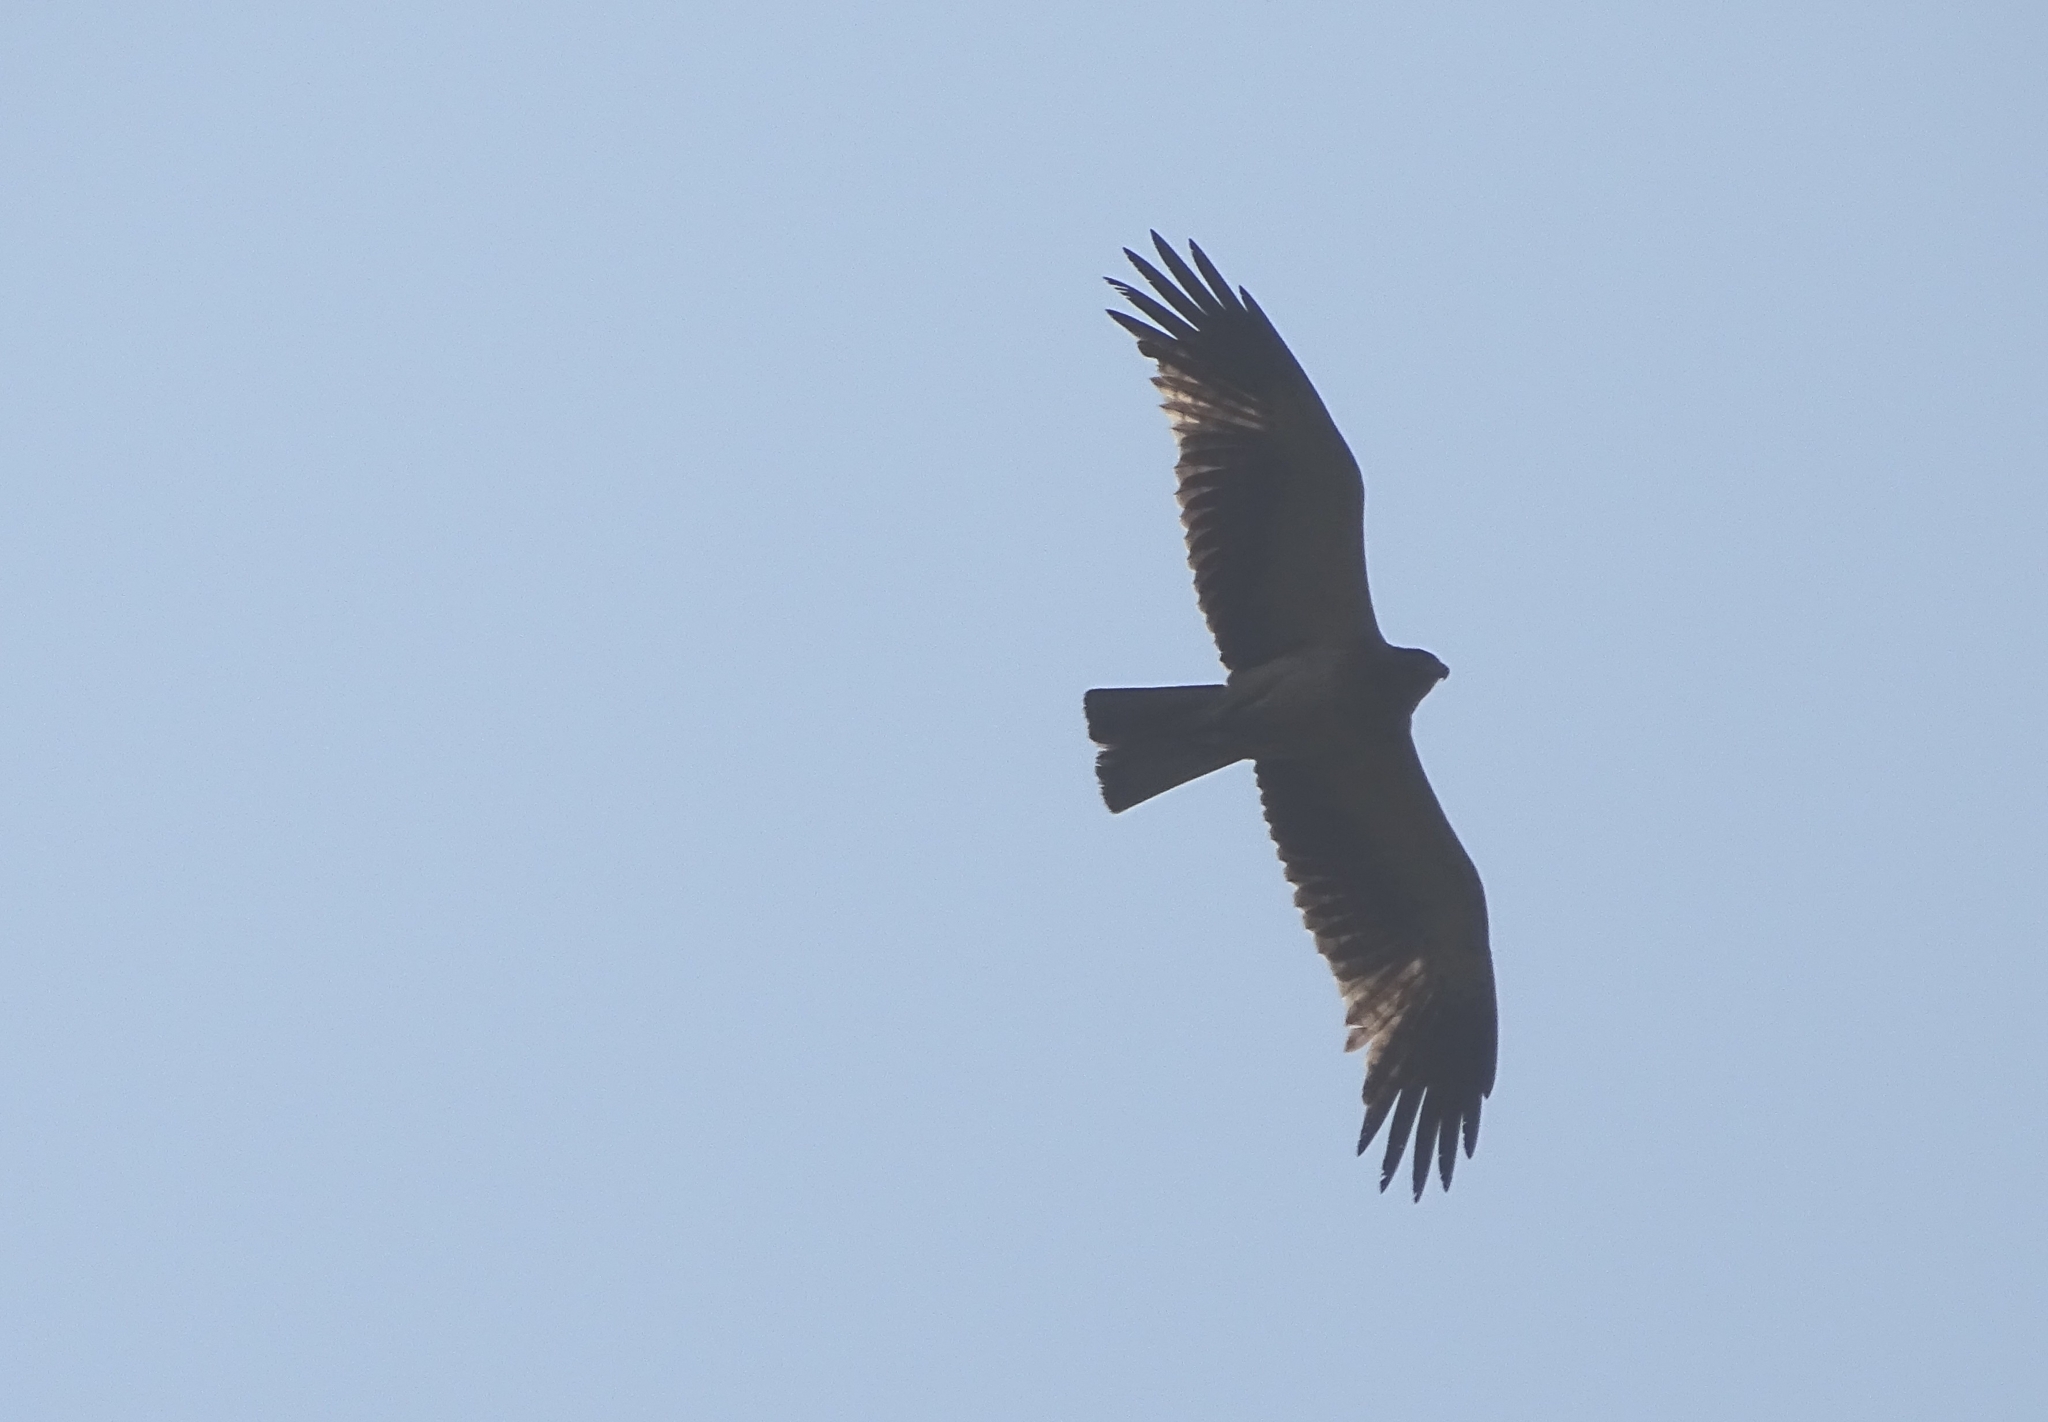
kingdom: Animalia
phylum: Chordata
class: Aves
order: Accipitriformes
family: Accipitridae
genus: Hieraaetus
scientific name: Hieraaetus pennatus
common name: Booted eagle
